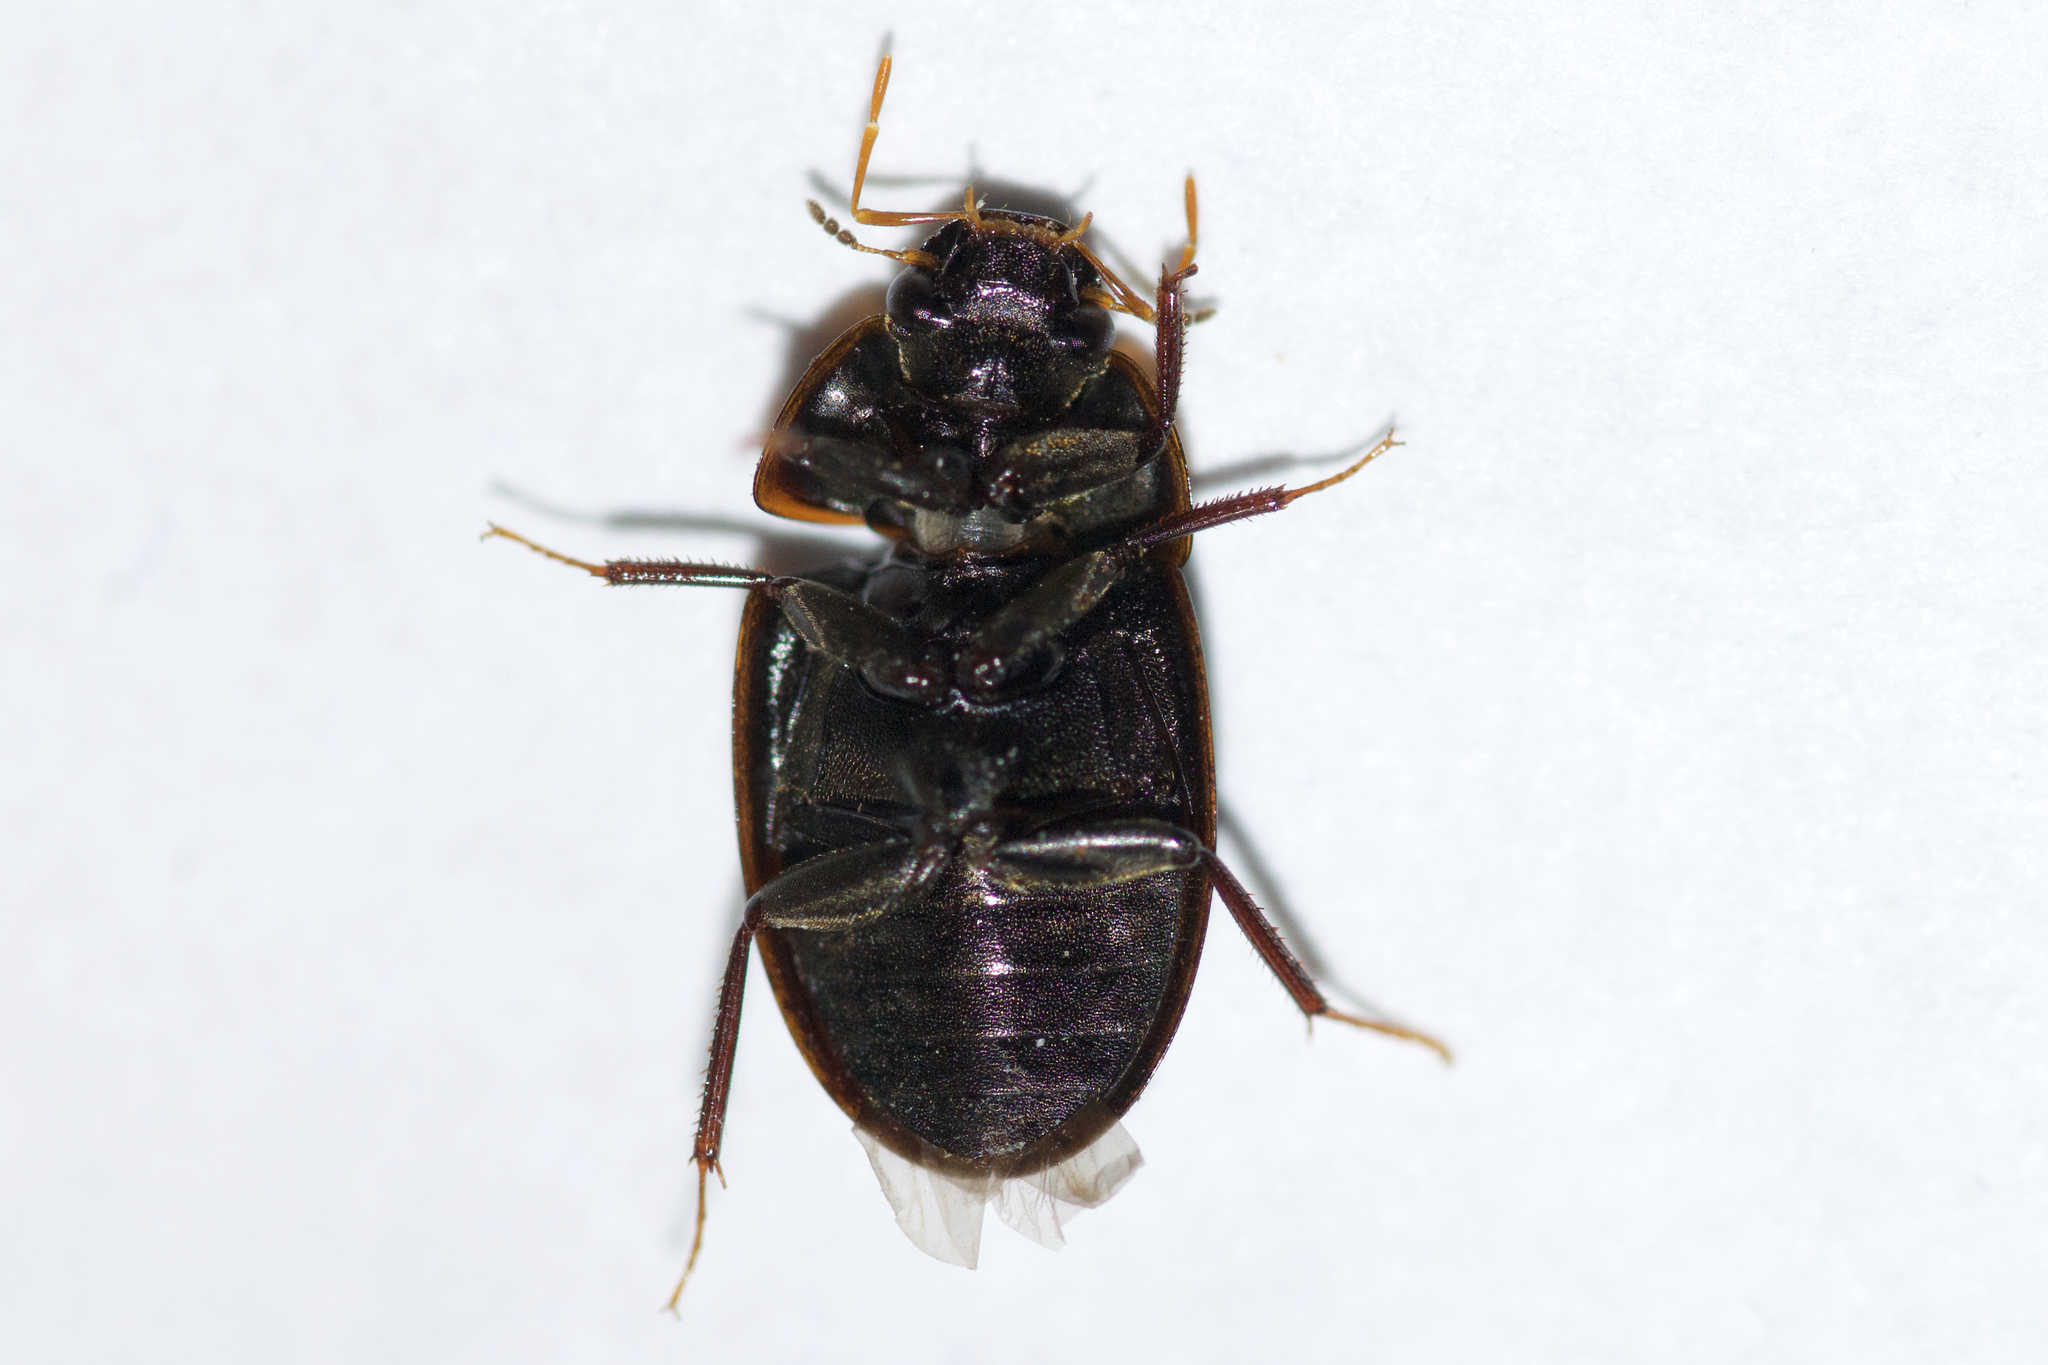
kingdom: Animalia
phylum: Arthropoda
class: Insecta
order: Coleoptera
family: Hydrophilidae
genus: Cymbiodyta
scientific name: Cymbiodyta bifida
